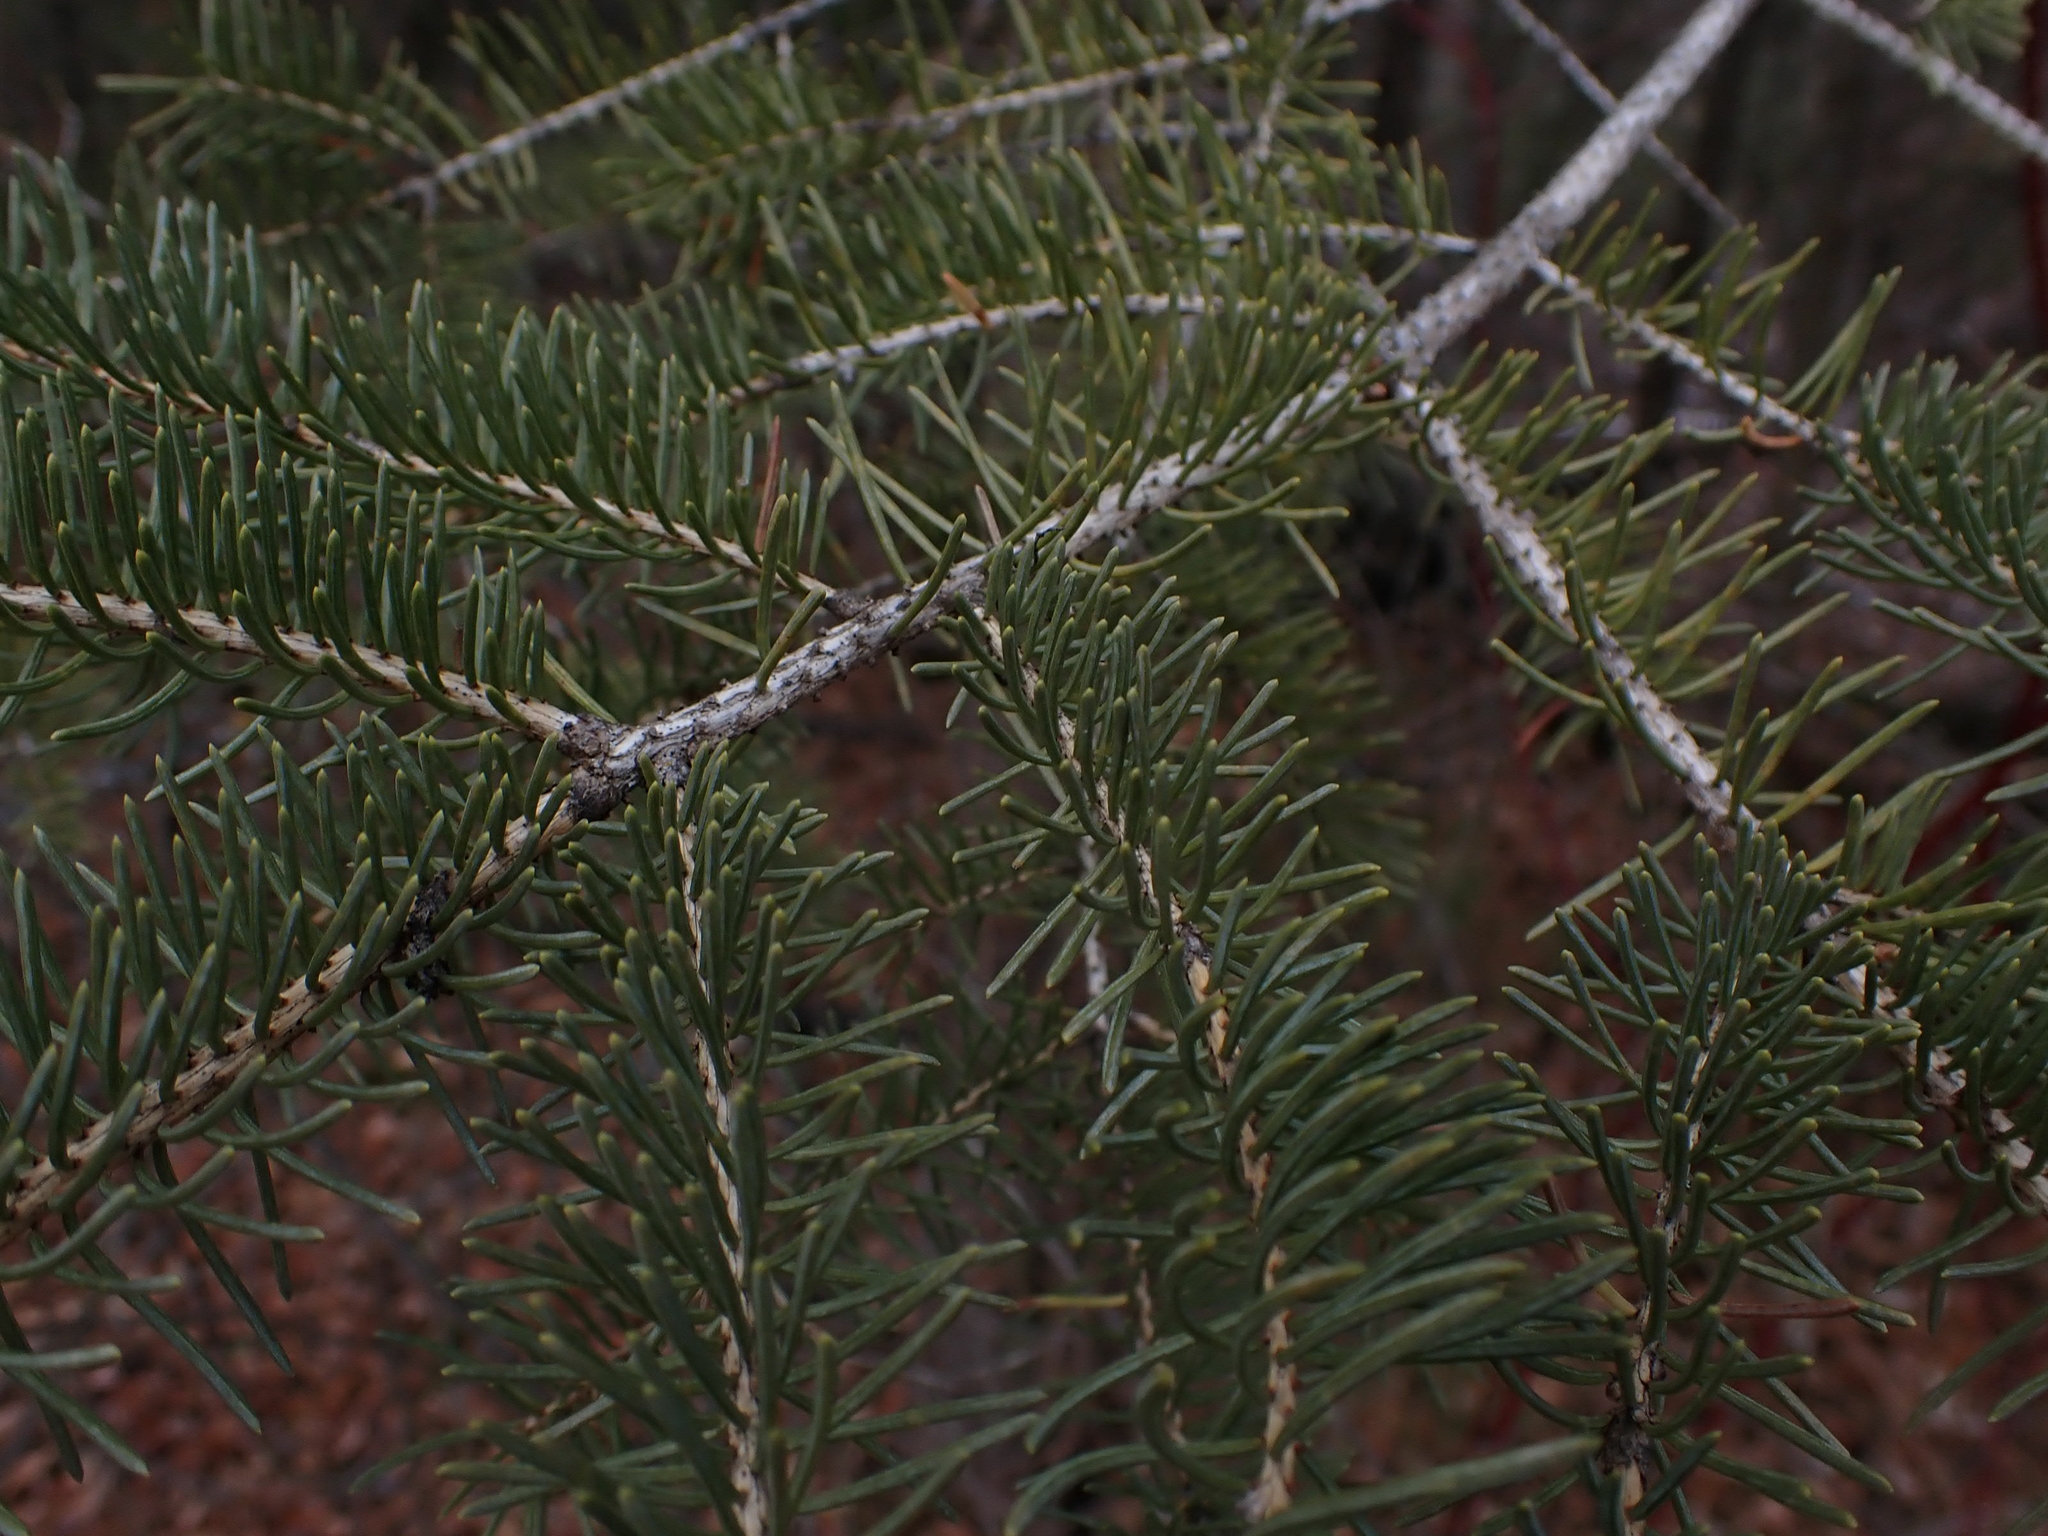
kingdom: Plantae
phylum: Tracheophyta
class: Pinopsida
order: Pinales
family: Pinaceae
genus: Picea
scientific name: Picea glauca
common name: White spruce
